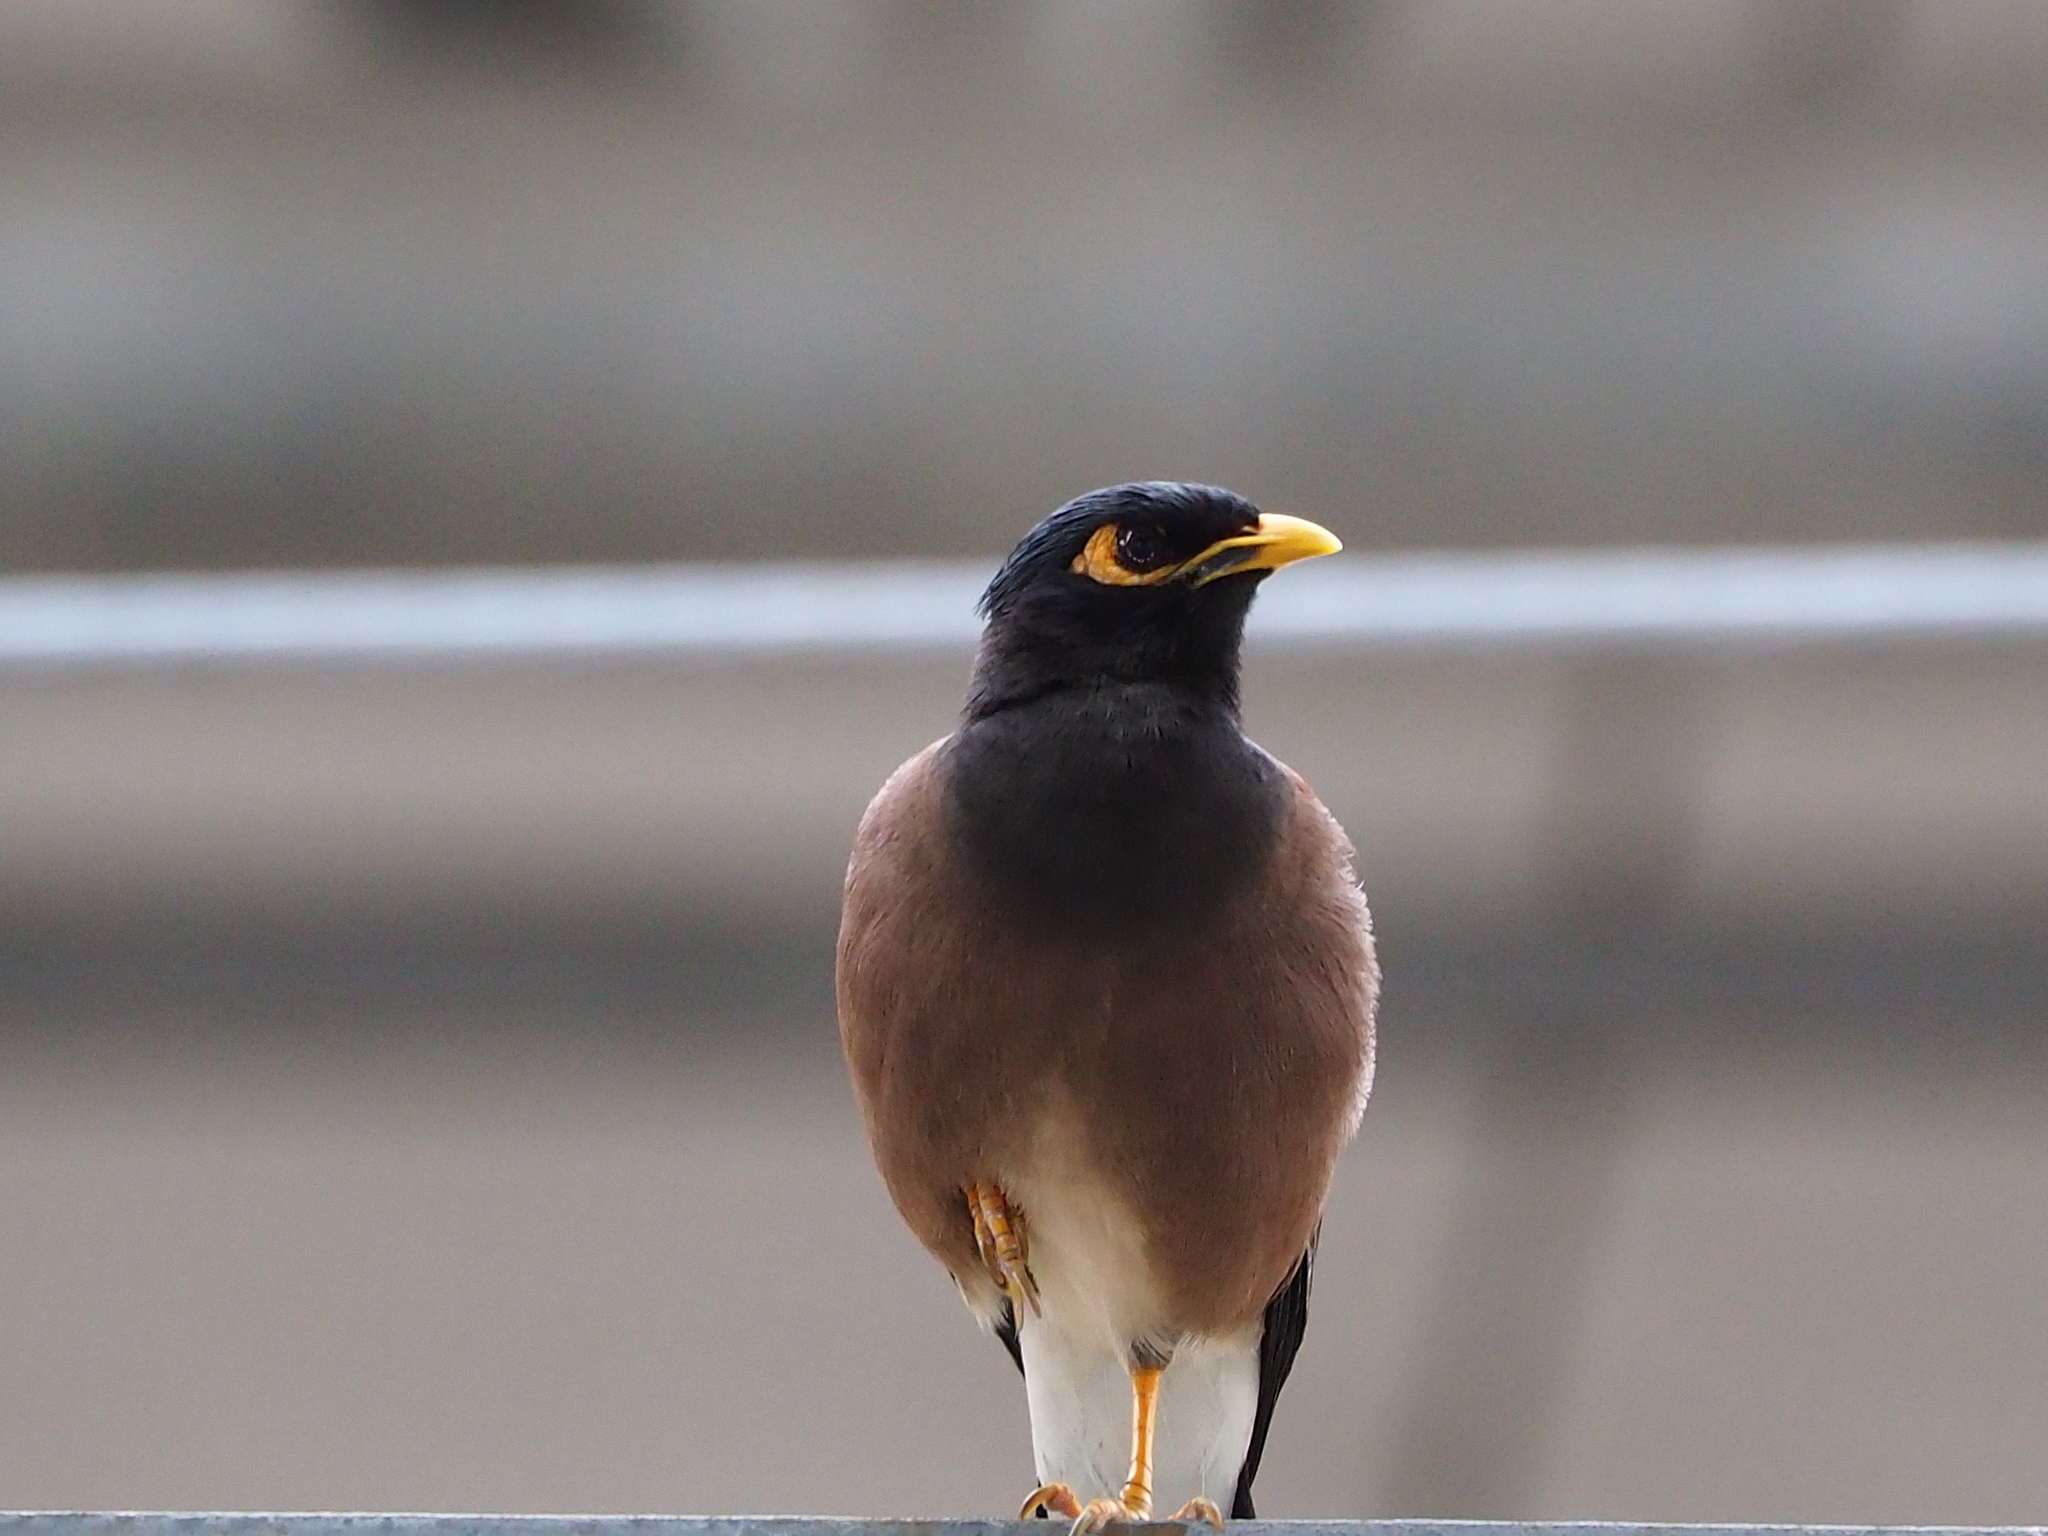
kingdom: Animalia
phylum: Chordata
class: Aves
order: Passeriformes
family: Sturnidae
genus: Acridotheres
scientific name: Acridotheres tristis
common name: Common myna
